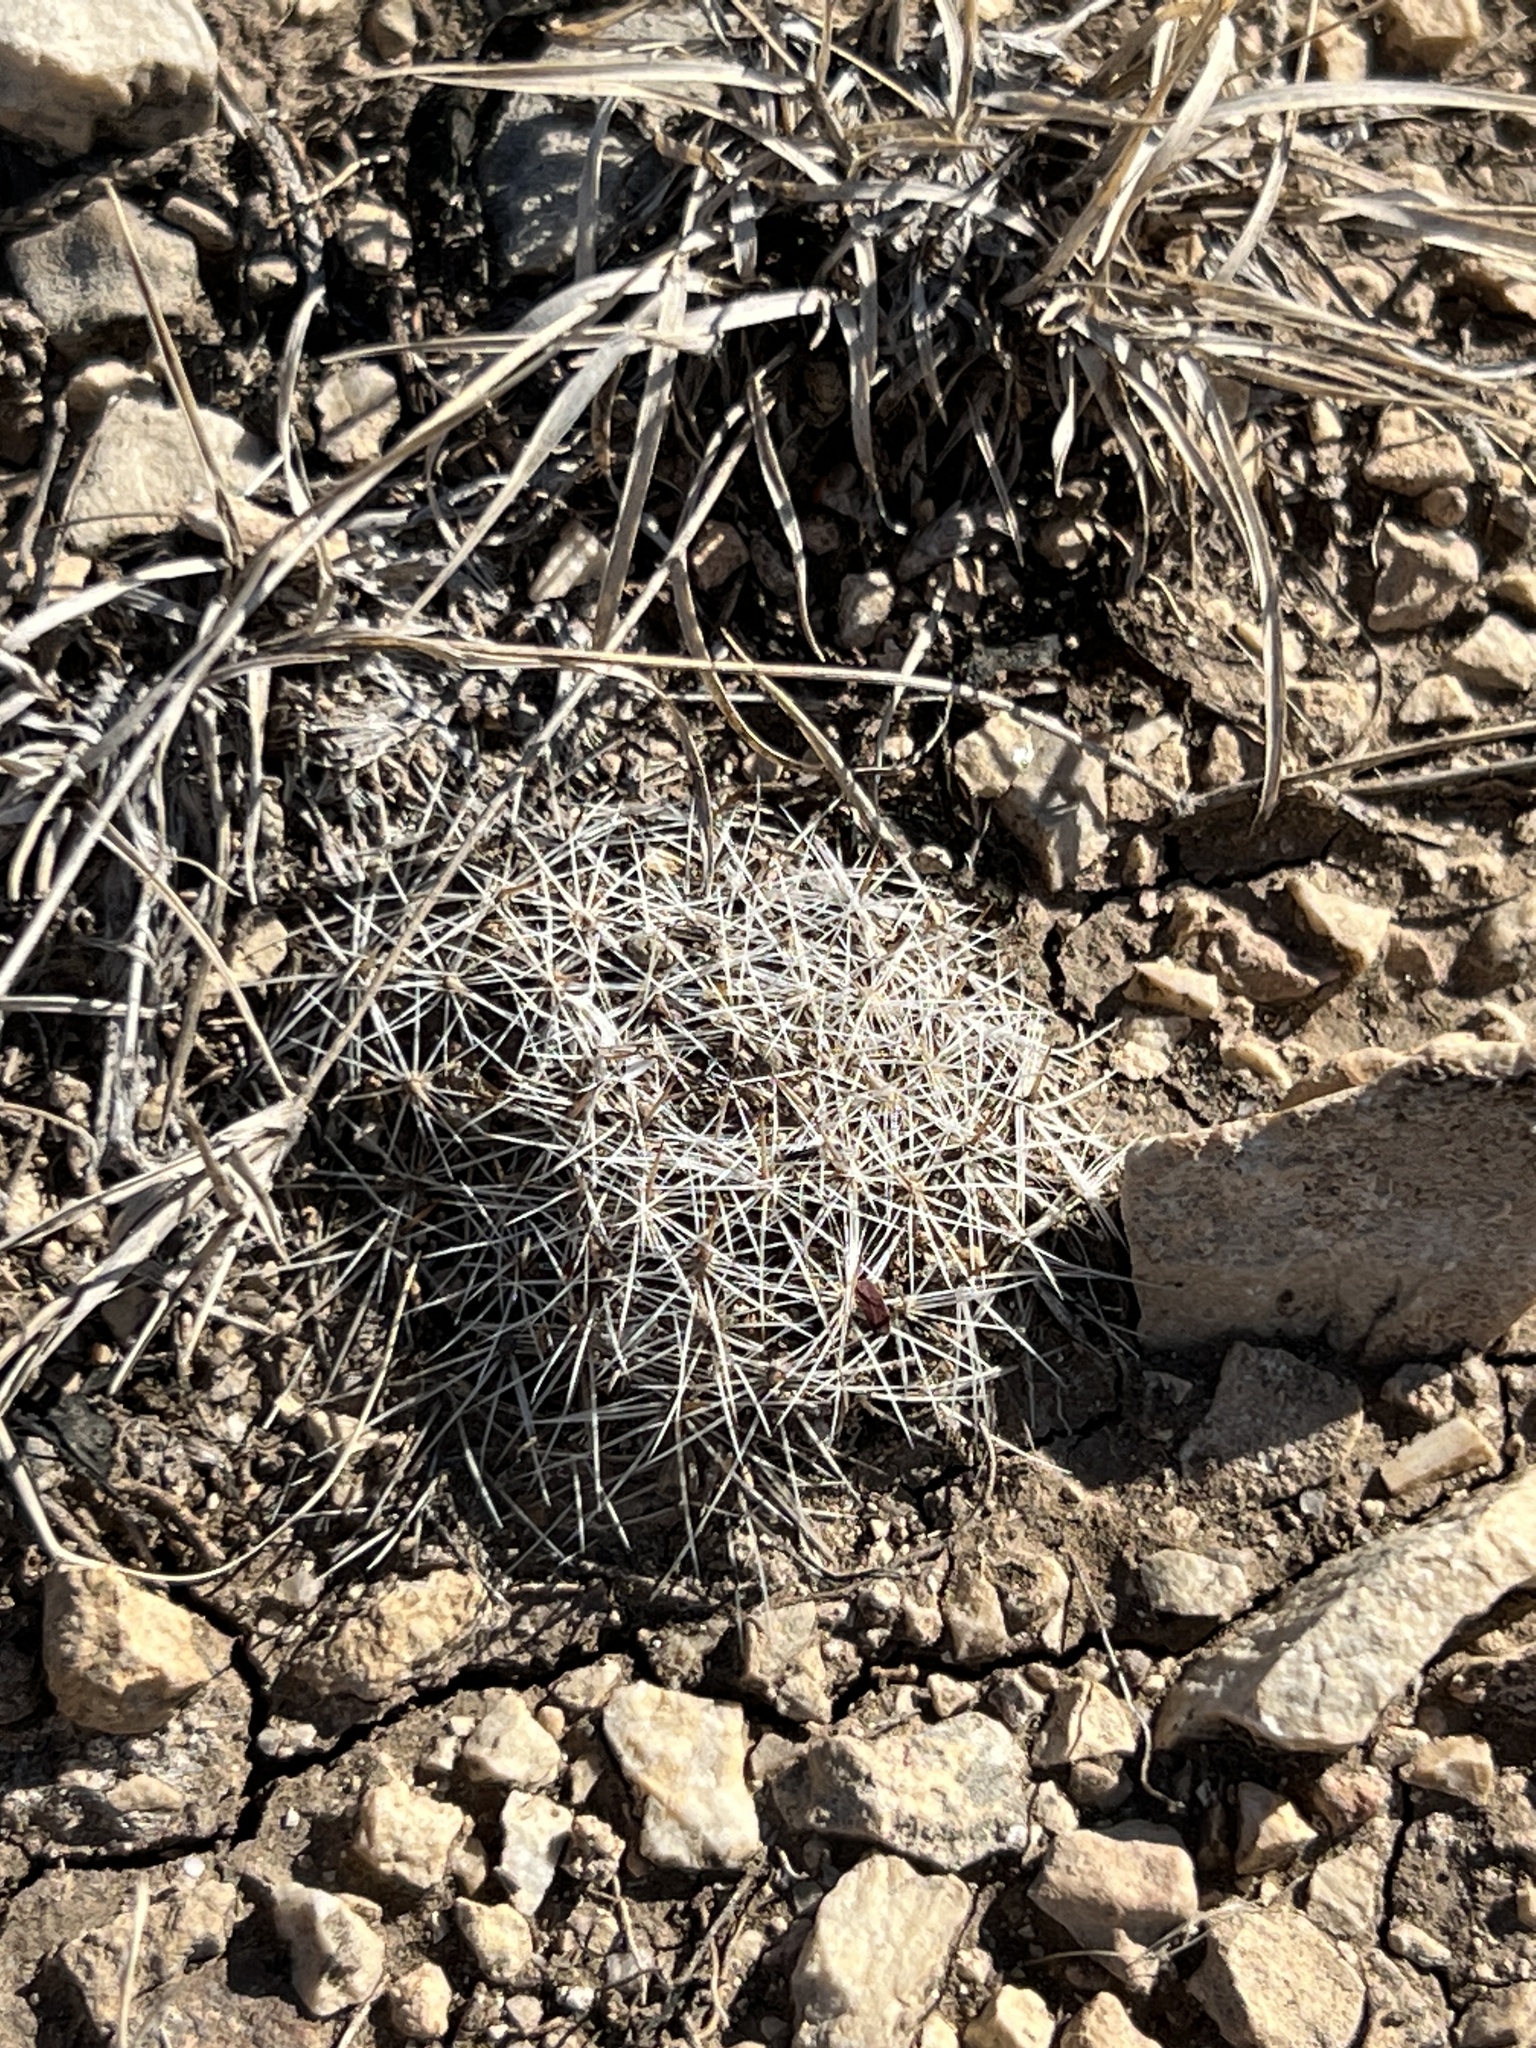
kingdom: Plantae
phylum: Tracheophyta
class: Magnoliopsida
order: Caryophyllales
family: Cactaceae
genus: Mammillaria
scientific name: Mammillaria heyderi
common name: Little nipple cactus
